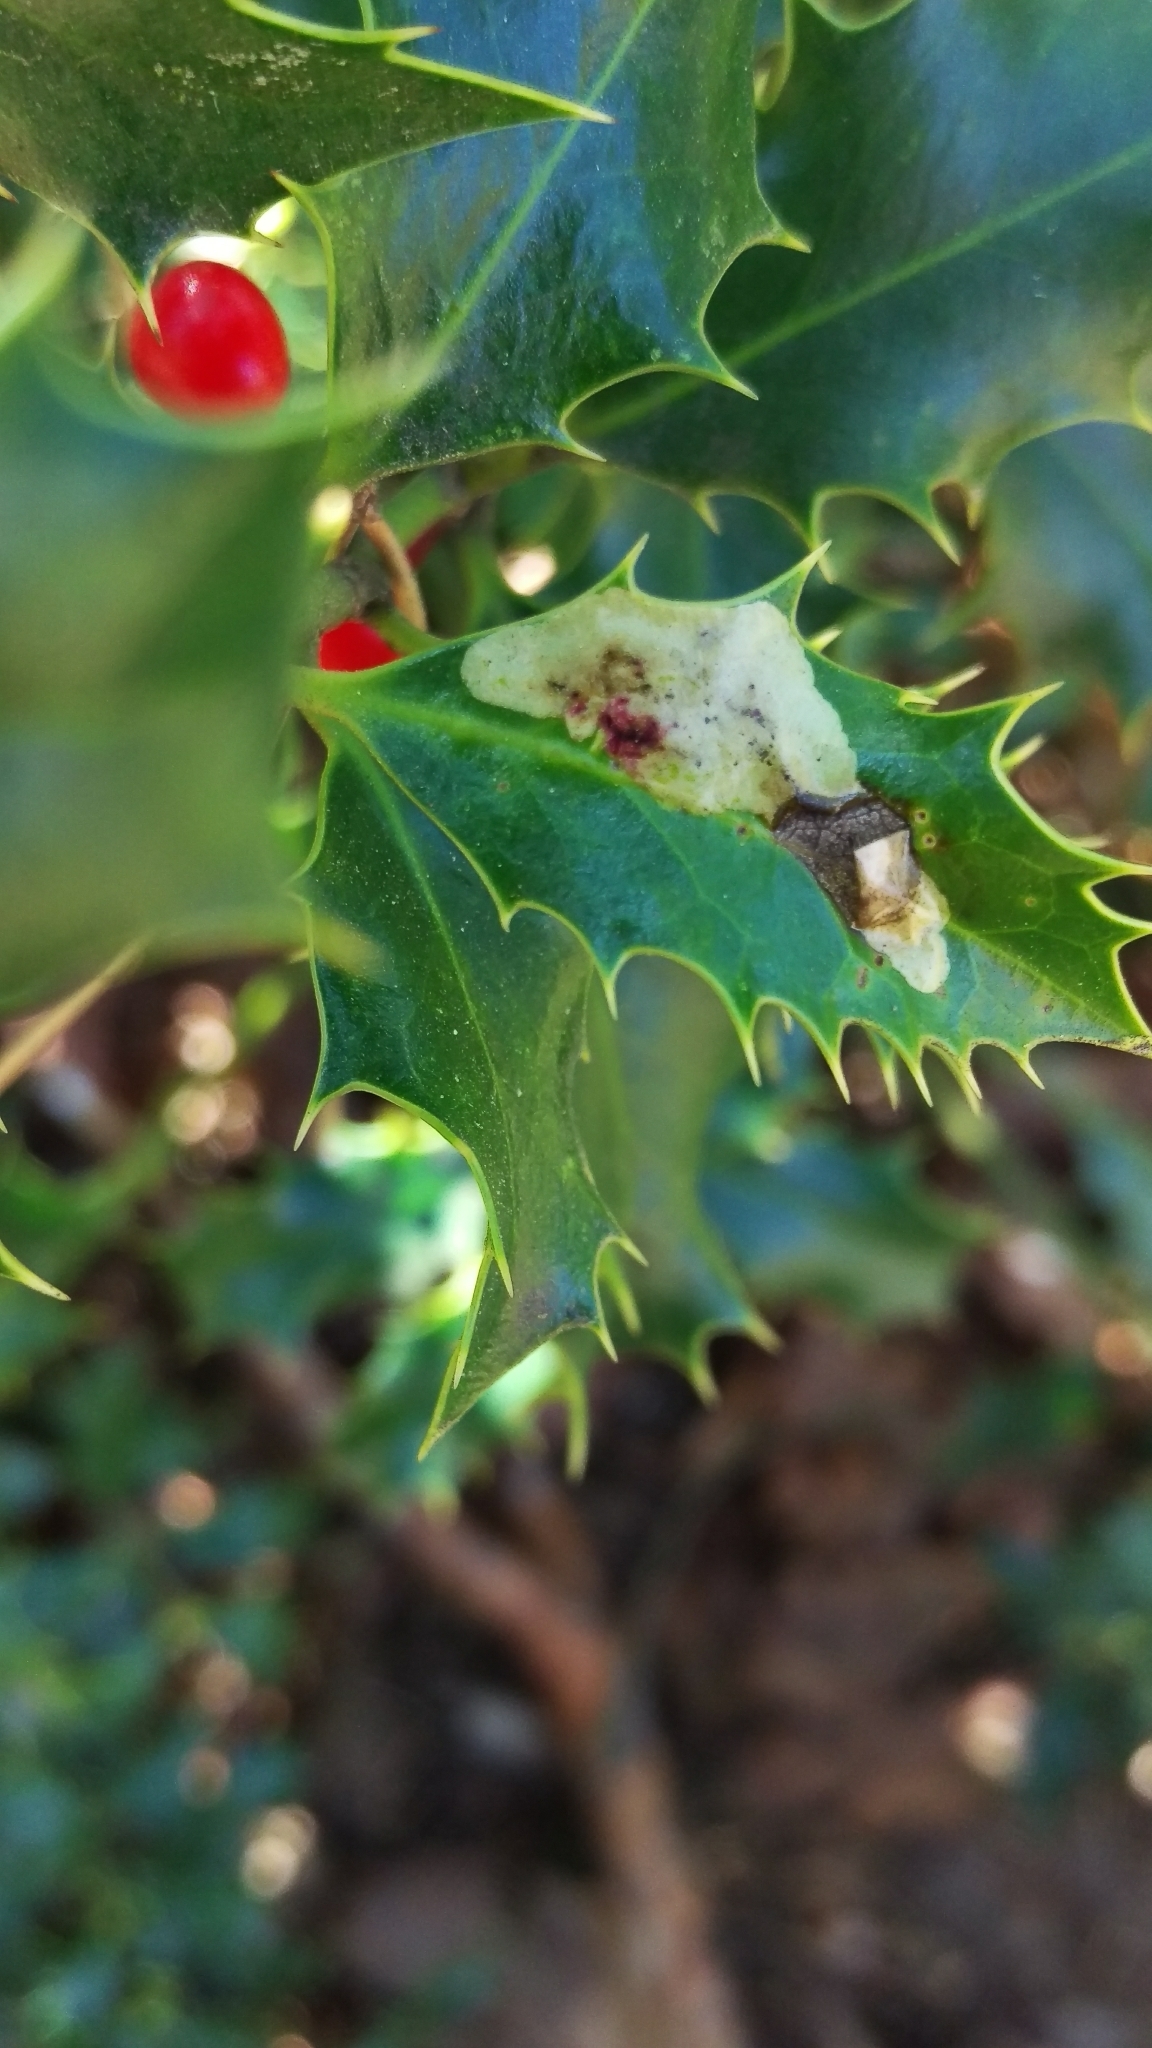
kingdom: Animalia
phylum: Arthropoda
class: Insecta
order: Diptera
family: Agromyzidae
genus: Phytomyza
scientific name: Phytomyza ilicis
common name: Holly leafminer
